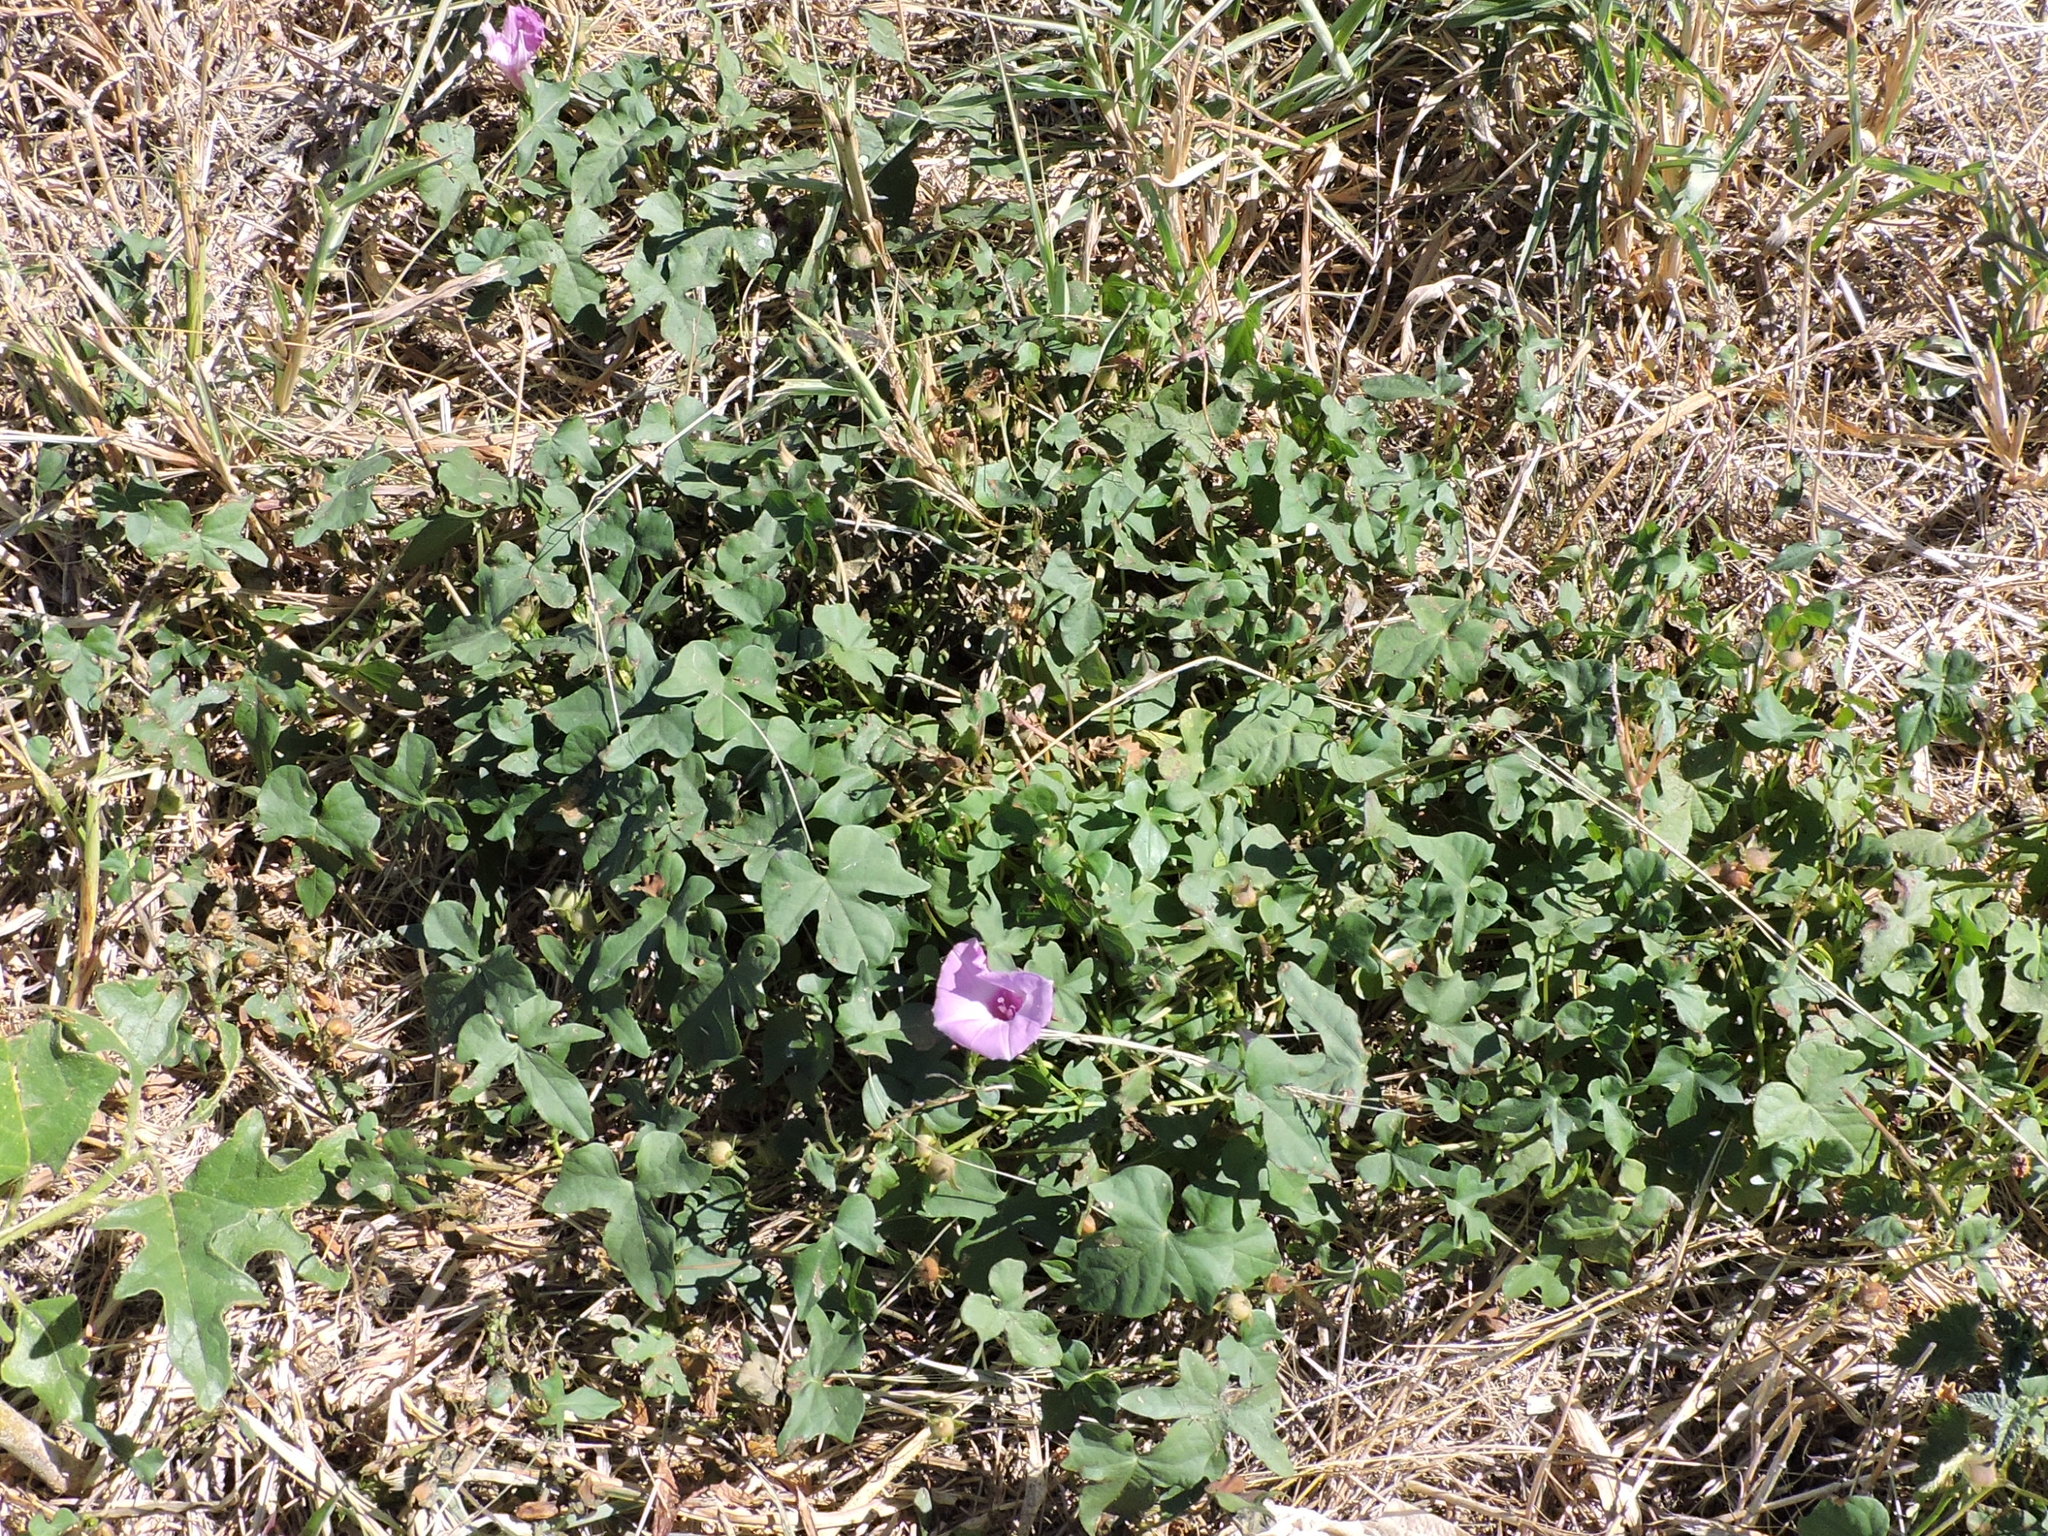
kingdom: Plantae
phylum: Tracheophyta
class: Magnoliopsida
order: Solanales
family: Convolvulaceae
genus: Ipomoea
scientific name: Ipomoea cordatotriloba
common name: Cotton morning glory
